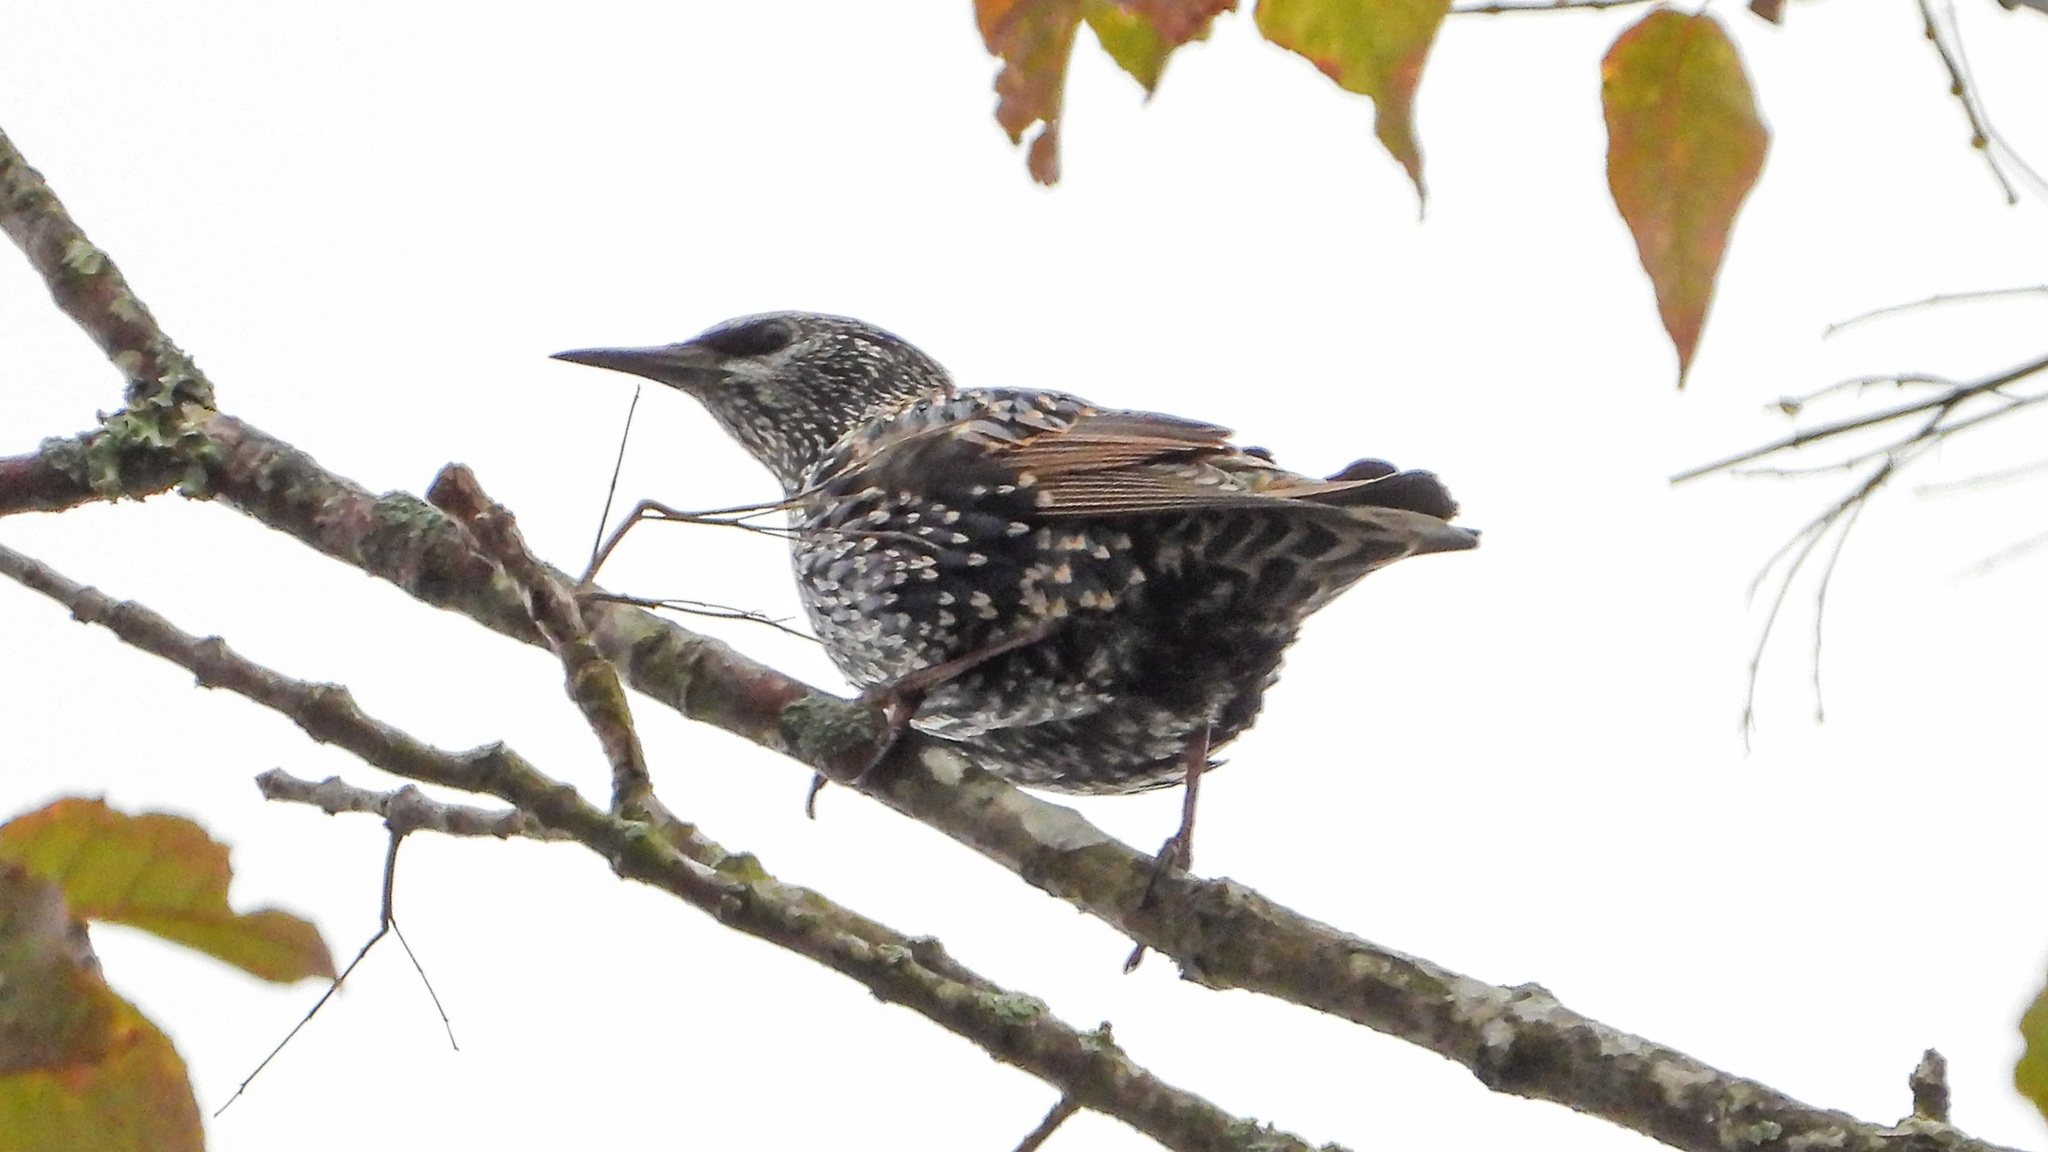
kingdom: Animalia
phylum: Chordata
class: Aves
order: Passeriformes
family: Sturnidae
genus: Sturnus
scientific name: Sturnus vulgaris
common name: Common starling
